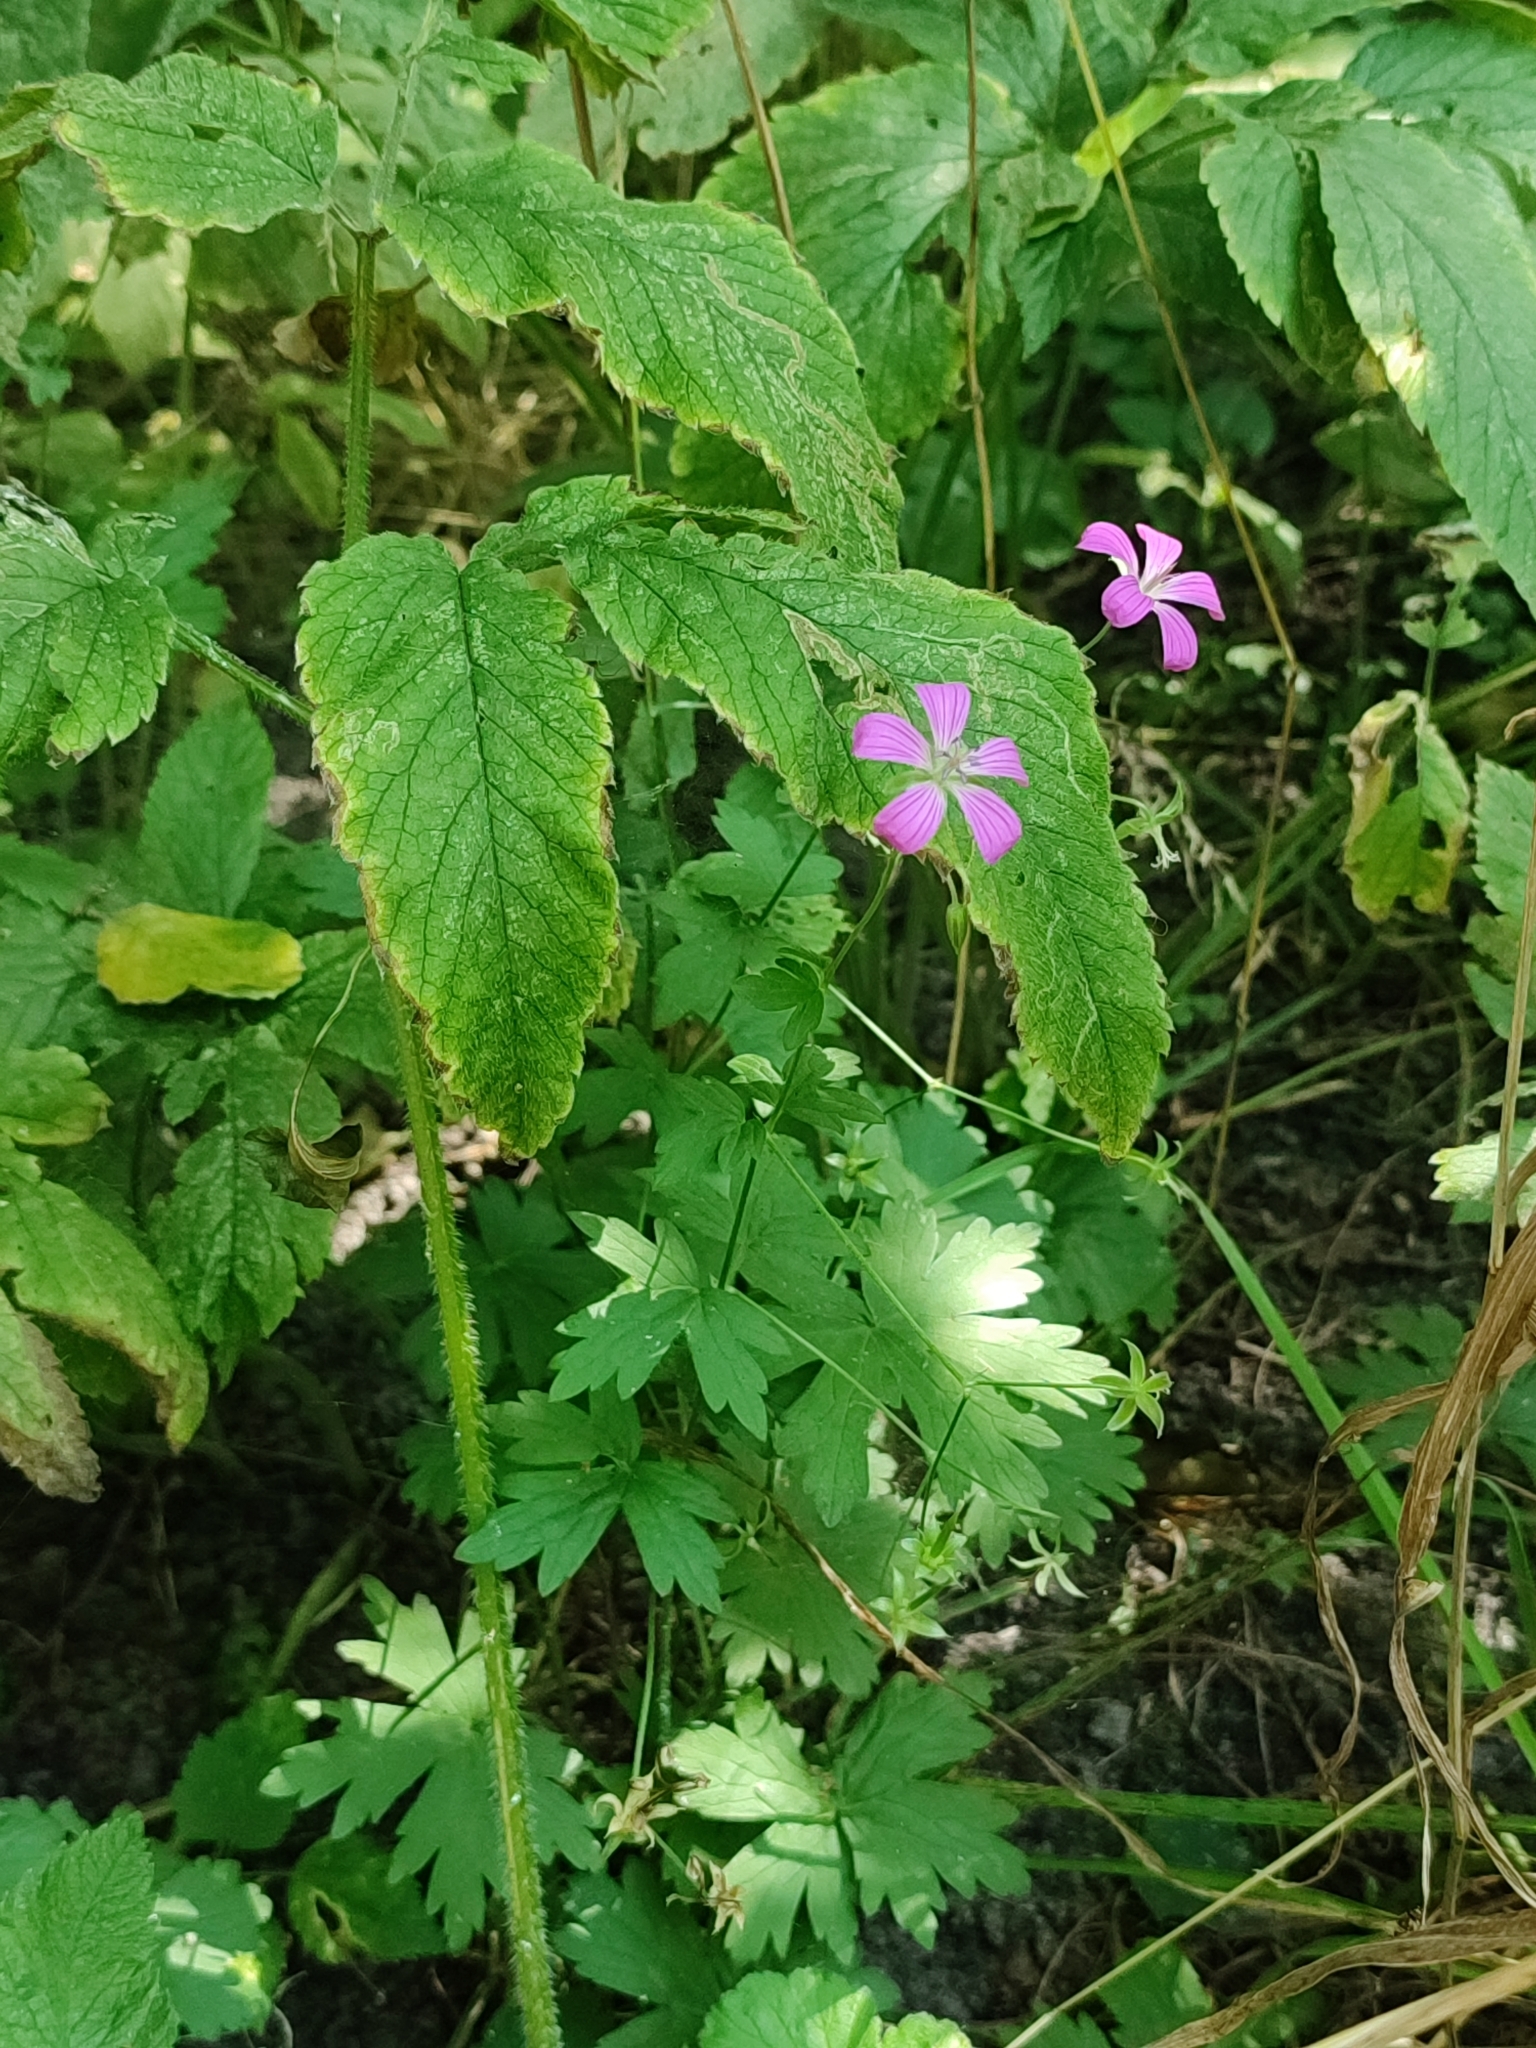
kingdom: Plantae
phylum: Tracheophyta
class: Magnoliopsida
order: Geraniales
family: Geraniaceae
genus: Geranium
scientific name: Geranium palustre
